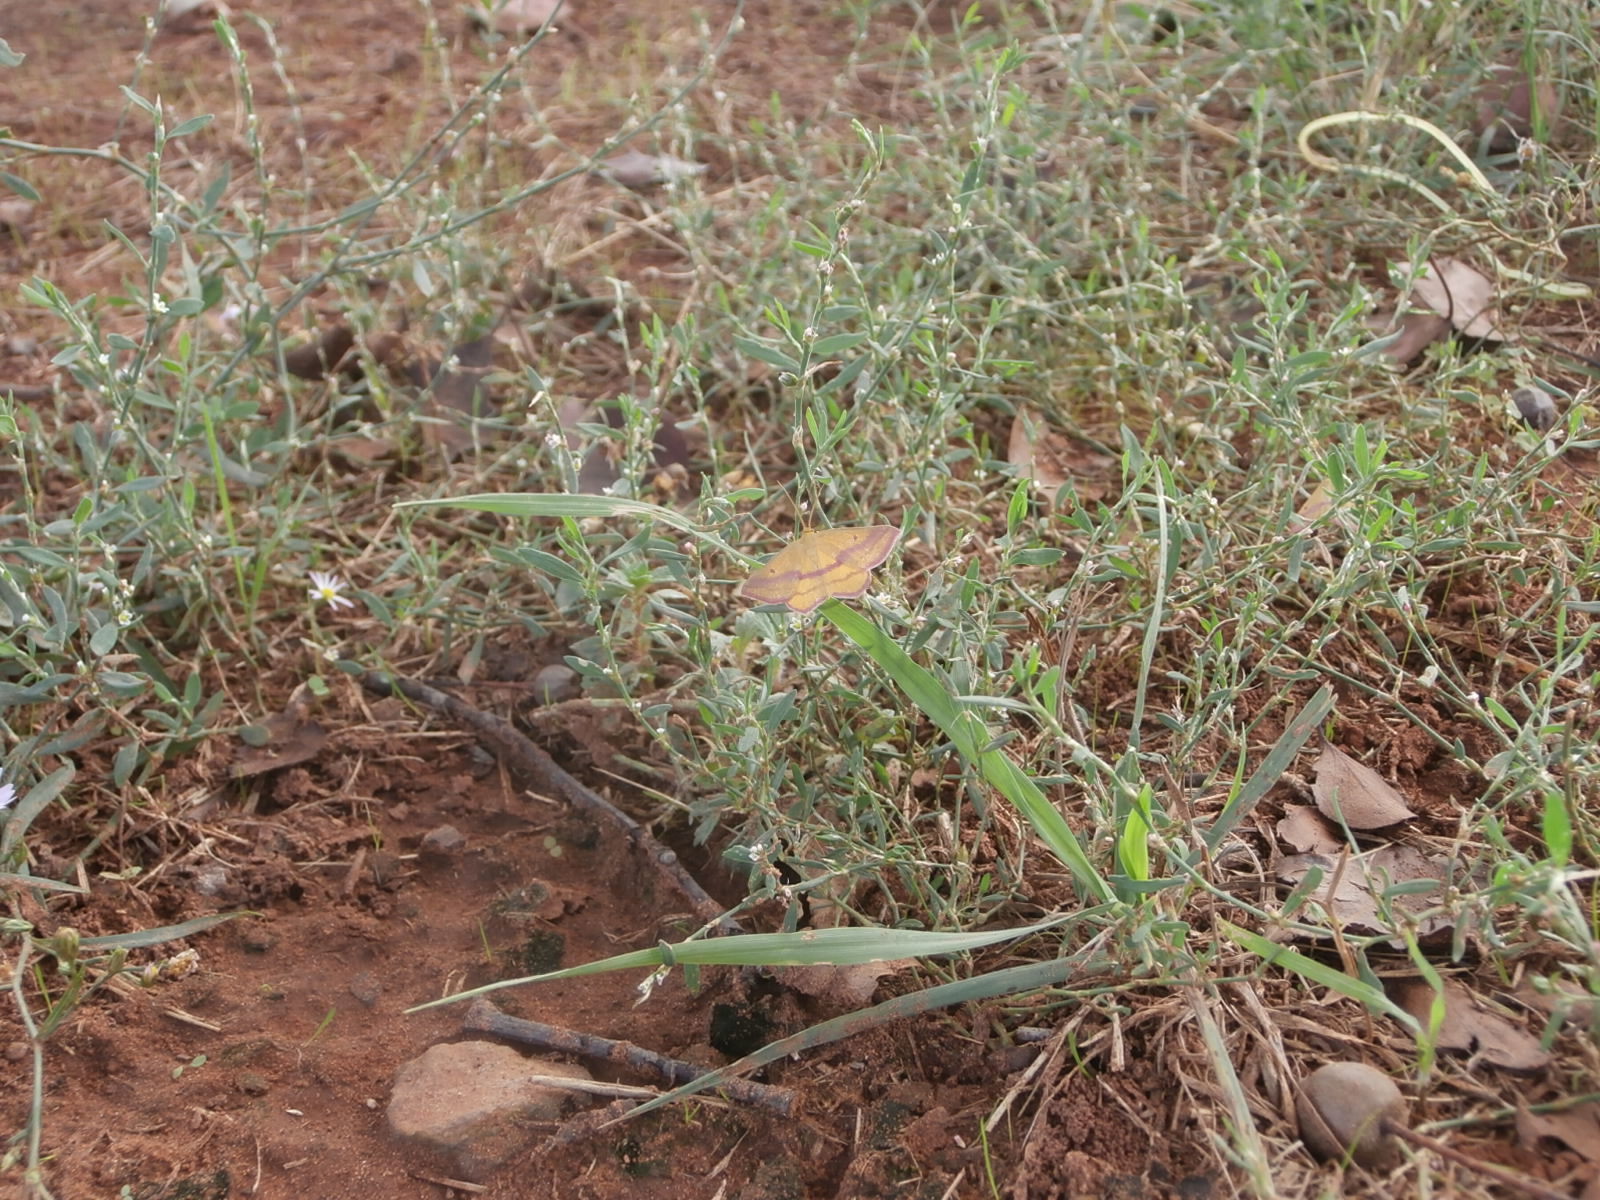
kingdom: Animalia
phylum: Arthropoda
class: Insecta
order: Lepidoptera
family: Geometridae
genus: Haematopis
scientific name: Haematopis grataria
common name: Chickweed geometer
